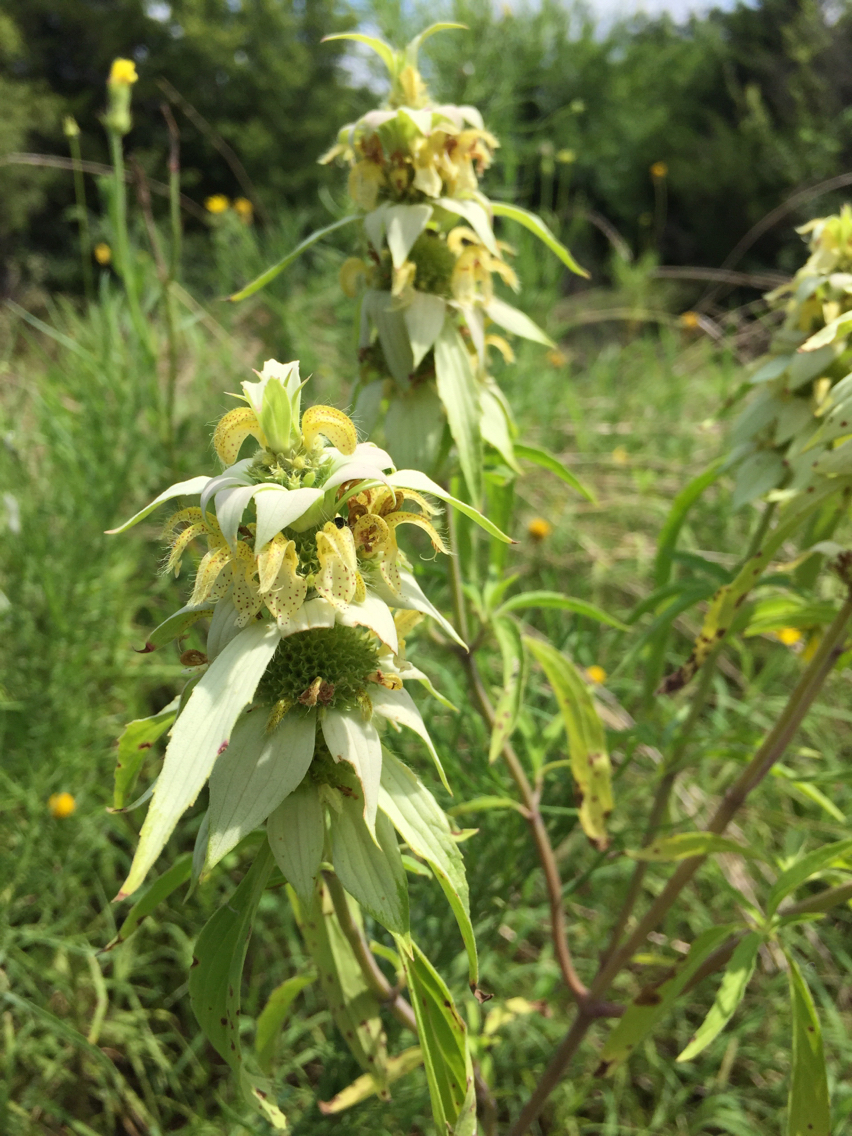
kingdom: Plantae
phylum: Tracheophyta
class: Magnoliopsida
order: Lamiales
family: Lamiaceae
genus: Monarda
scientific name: Monarda punctata
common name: Dotted monarda
